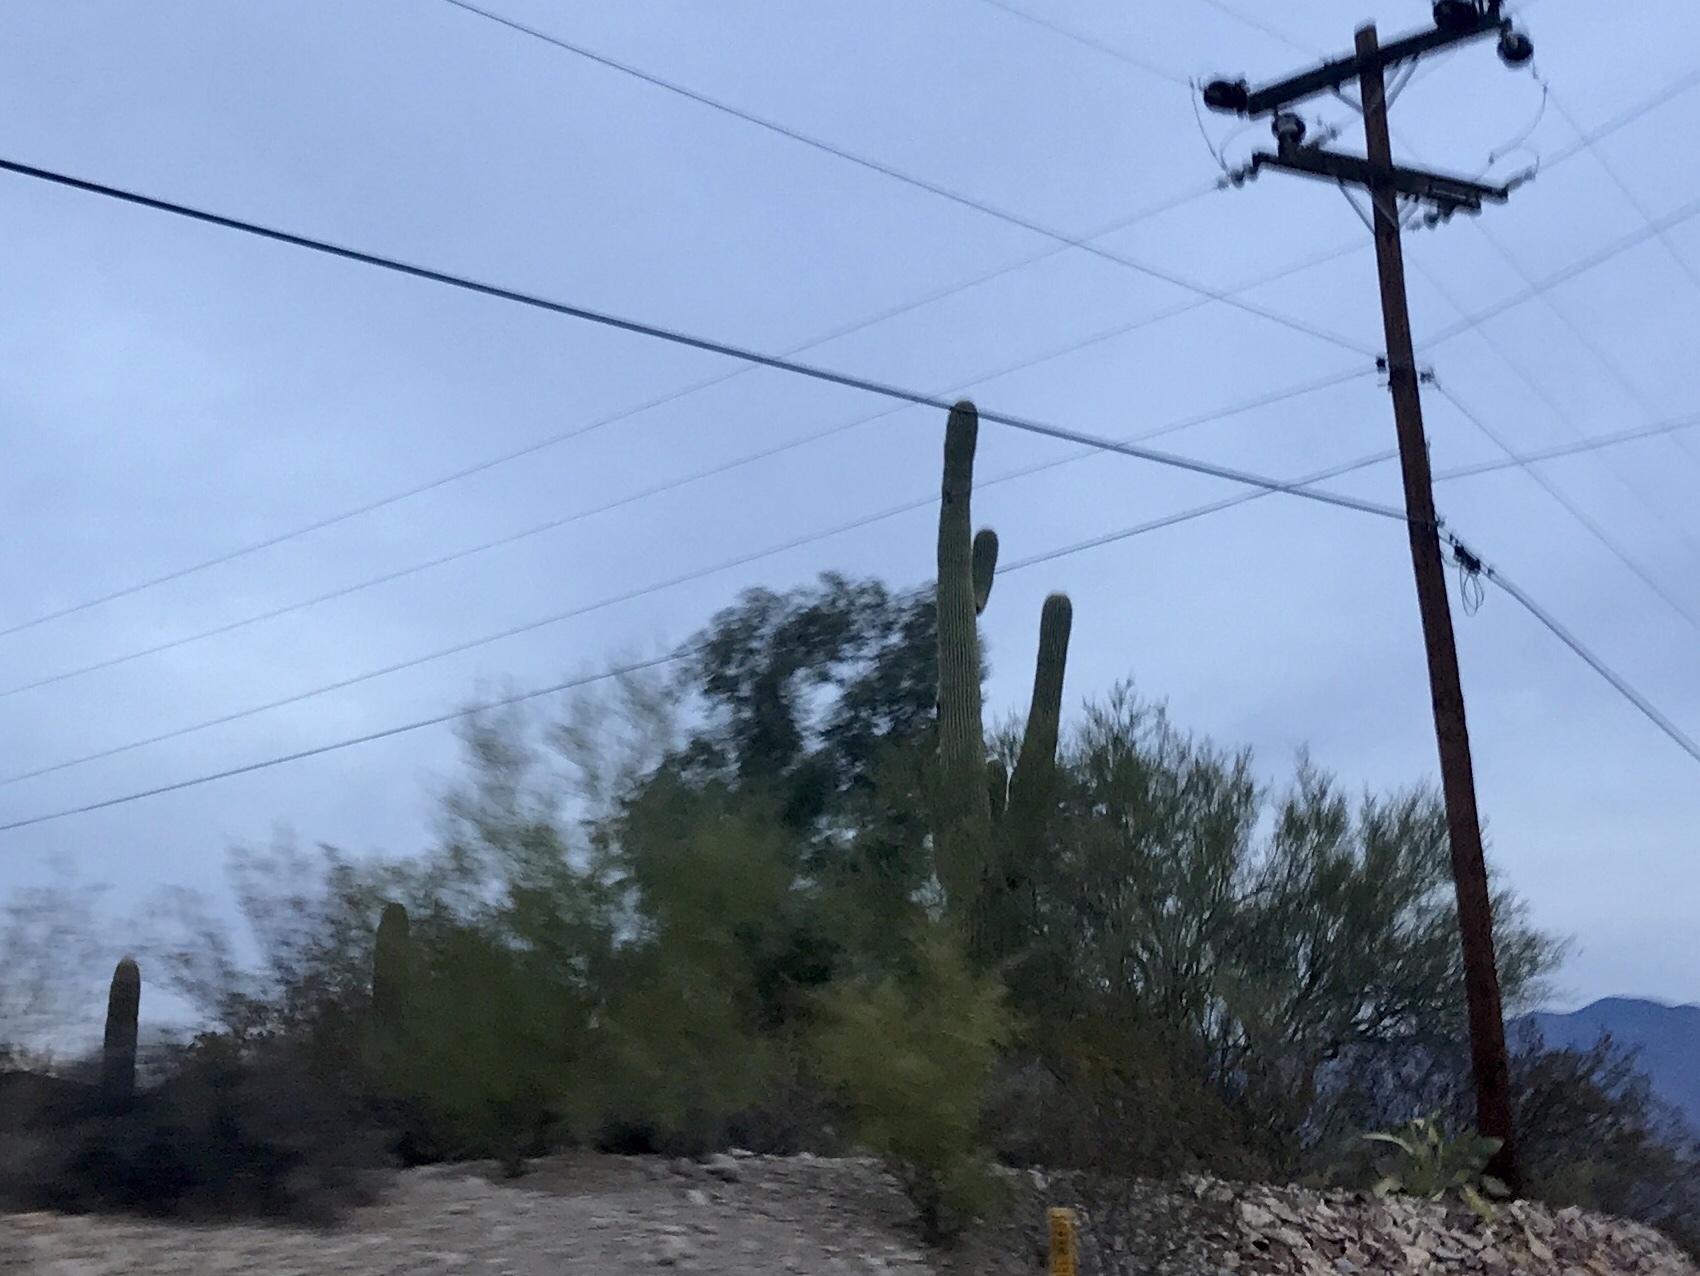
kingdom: Plantae
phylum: Tracheophyta
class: Magnoliopsida
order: Caryophyllales
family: Cactaceae
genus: Carnegiea
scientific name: Carnegiea gigantea
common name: Saguaro
